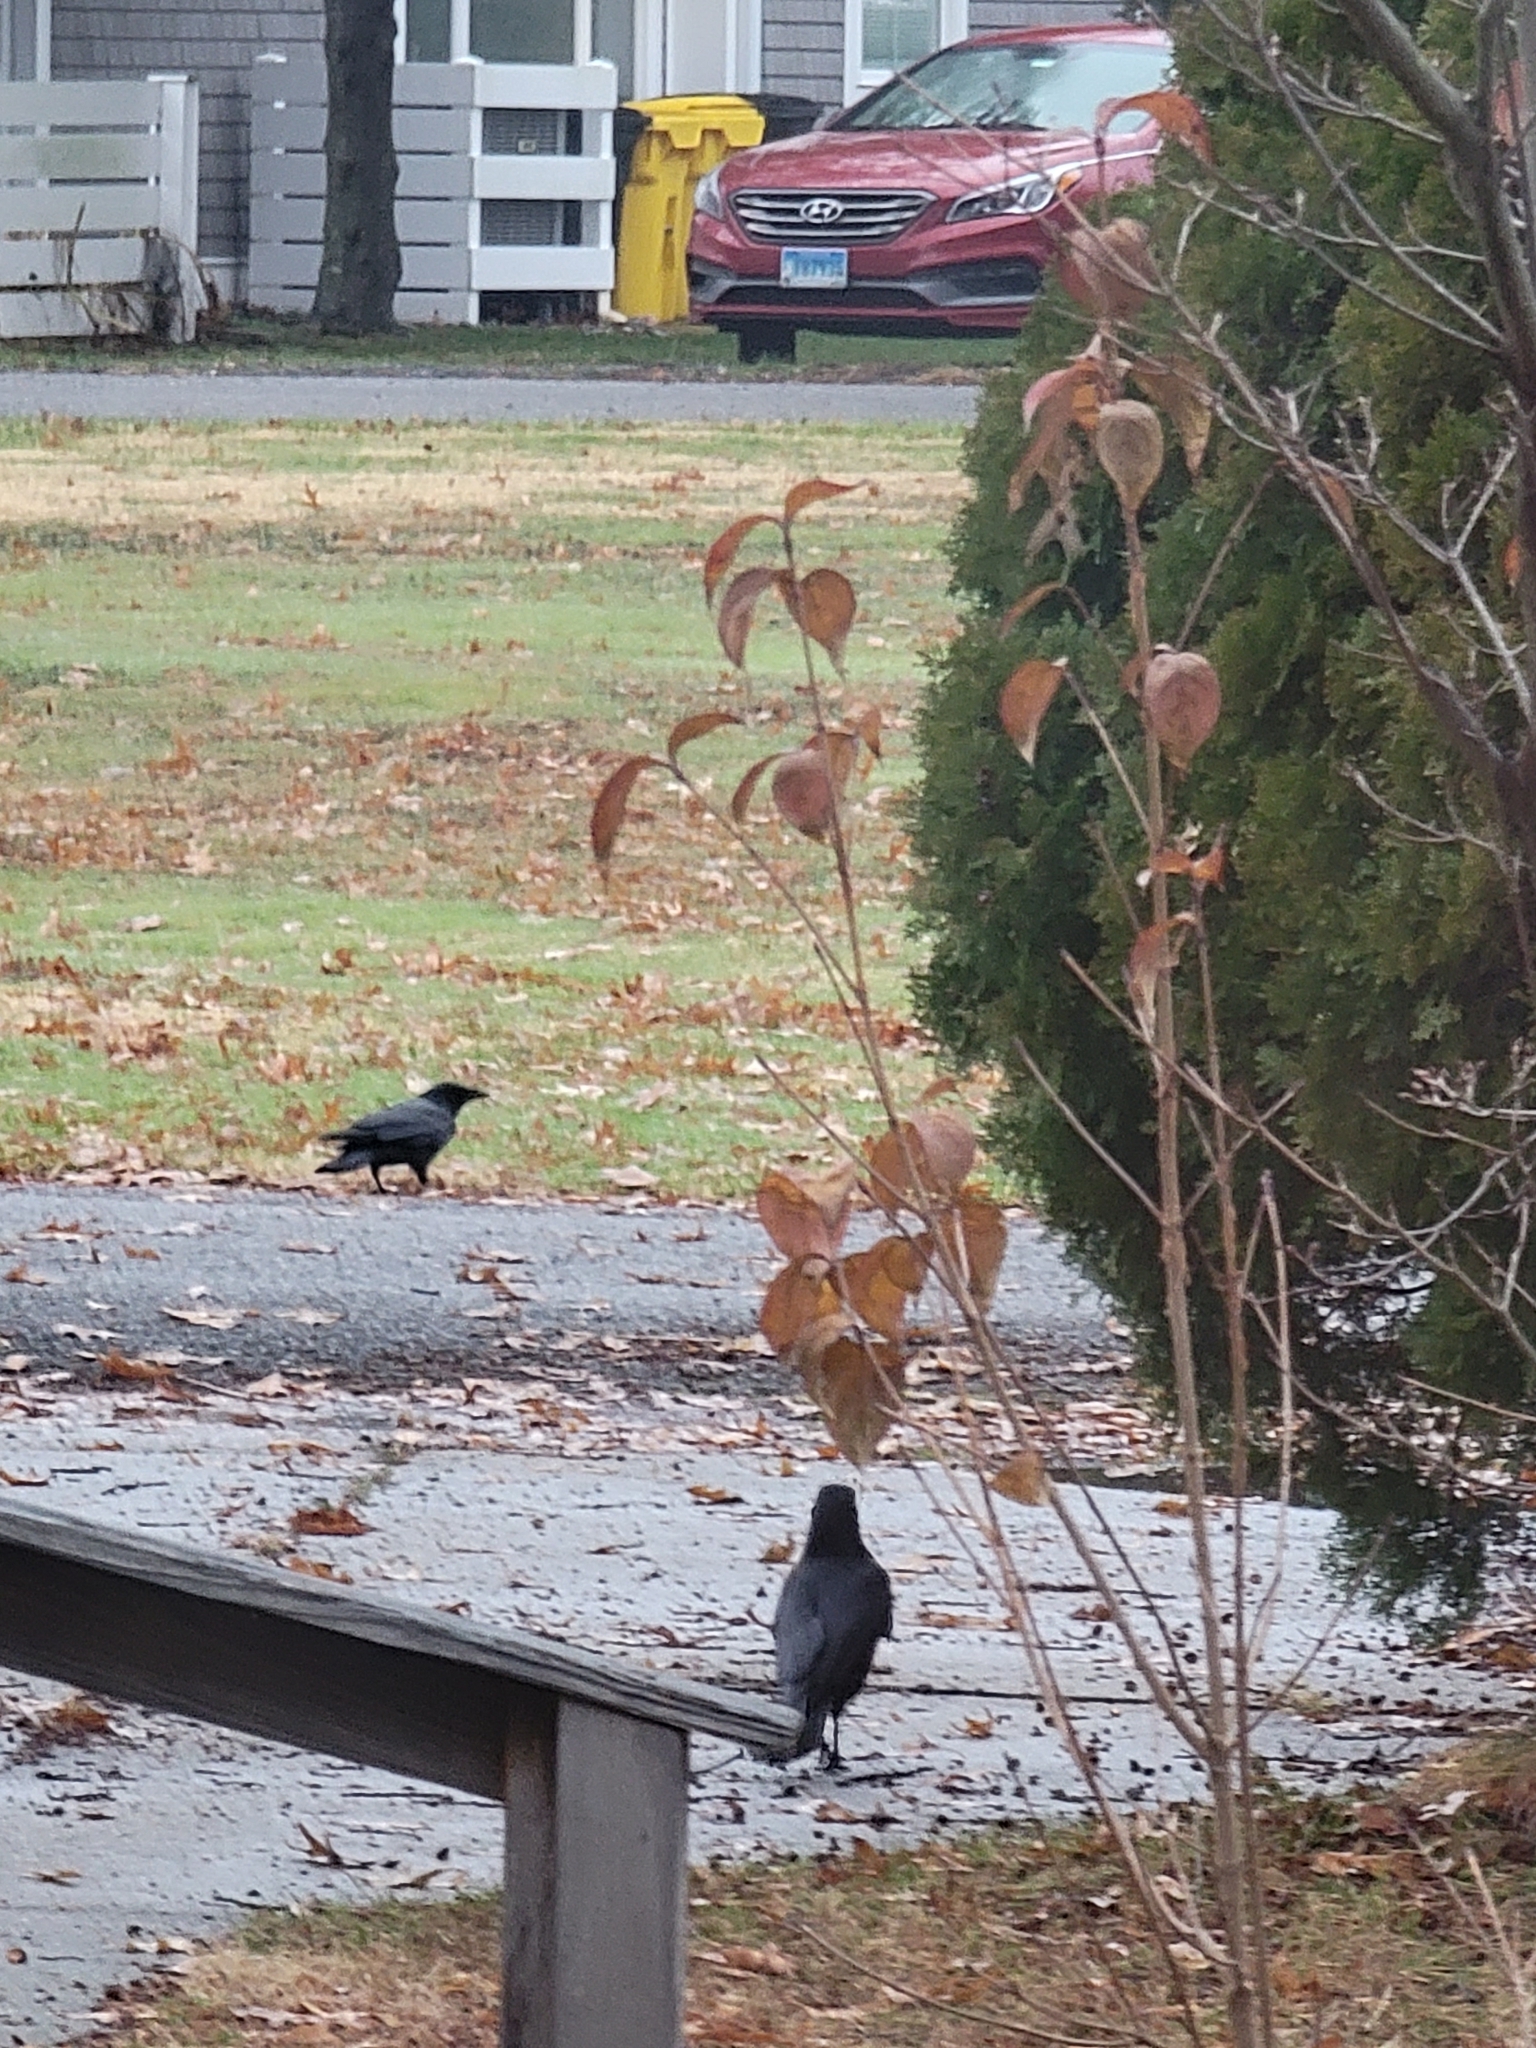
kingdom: Animalia
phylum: Chordata
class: Aves
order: Passeriformes
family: Corvidae
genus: Corvus
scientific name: Corvus brachyrhynchos
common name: American crow
